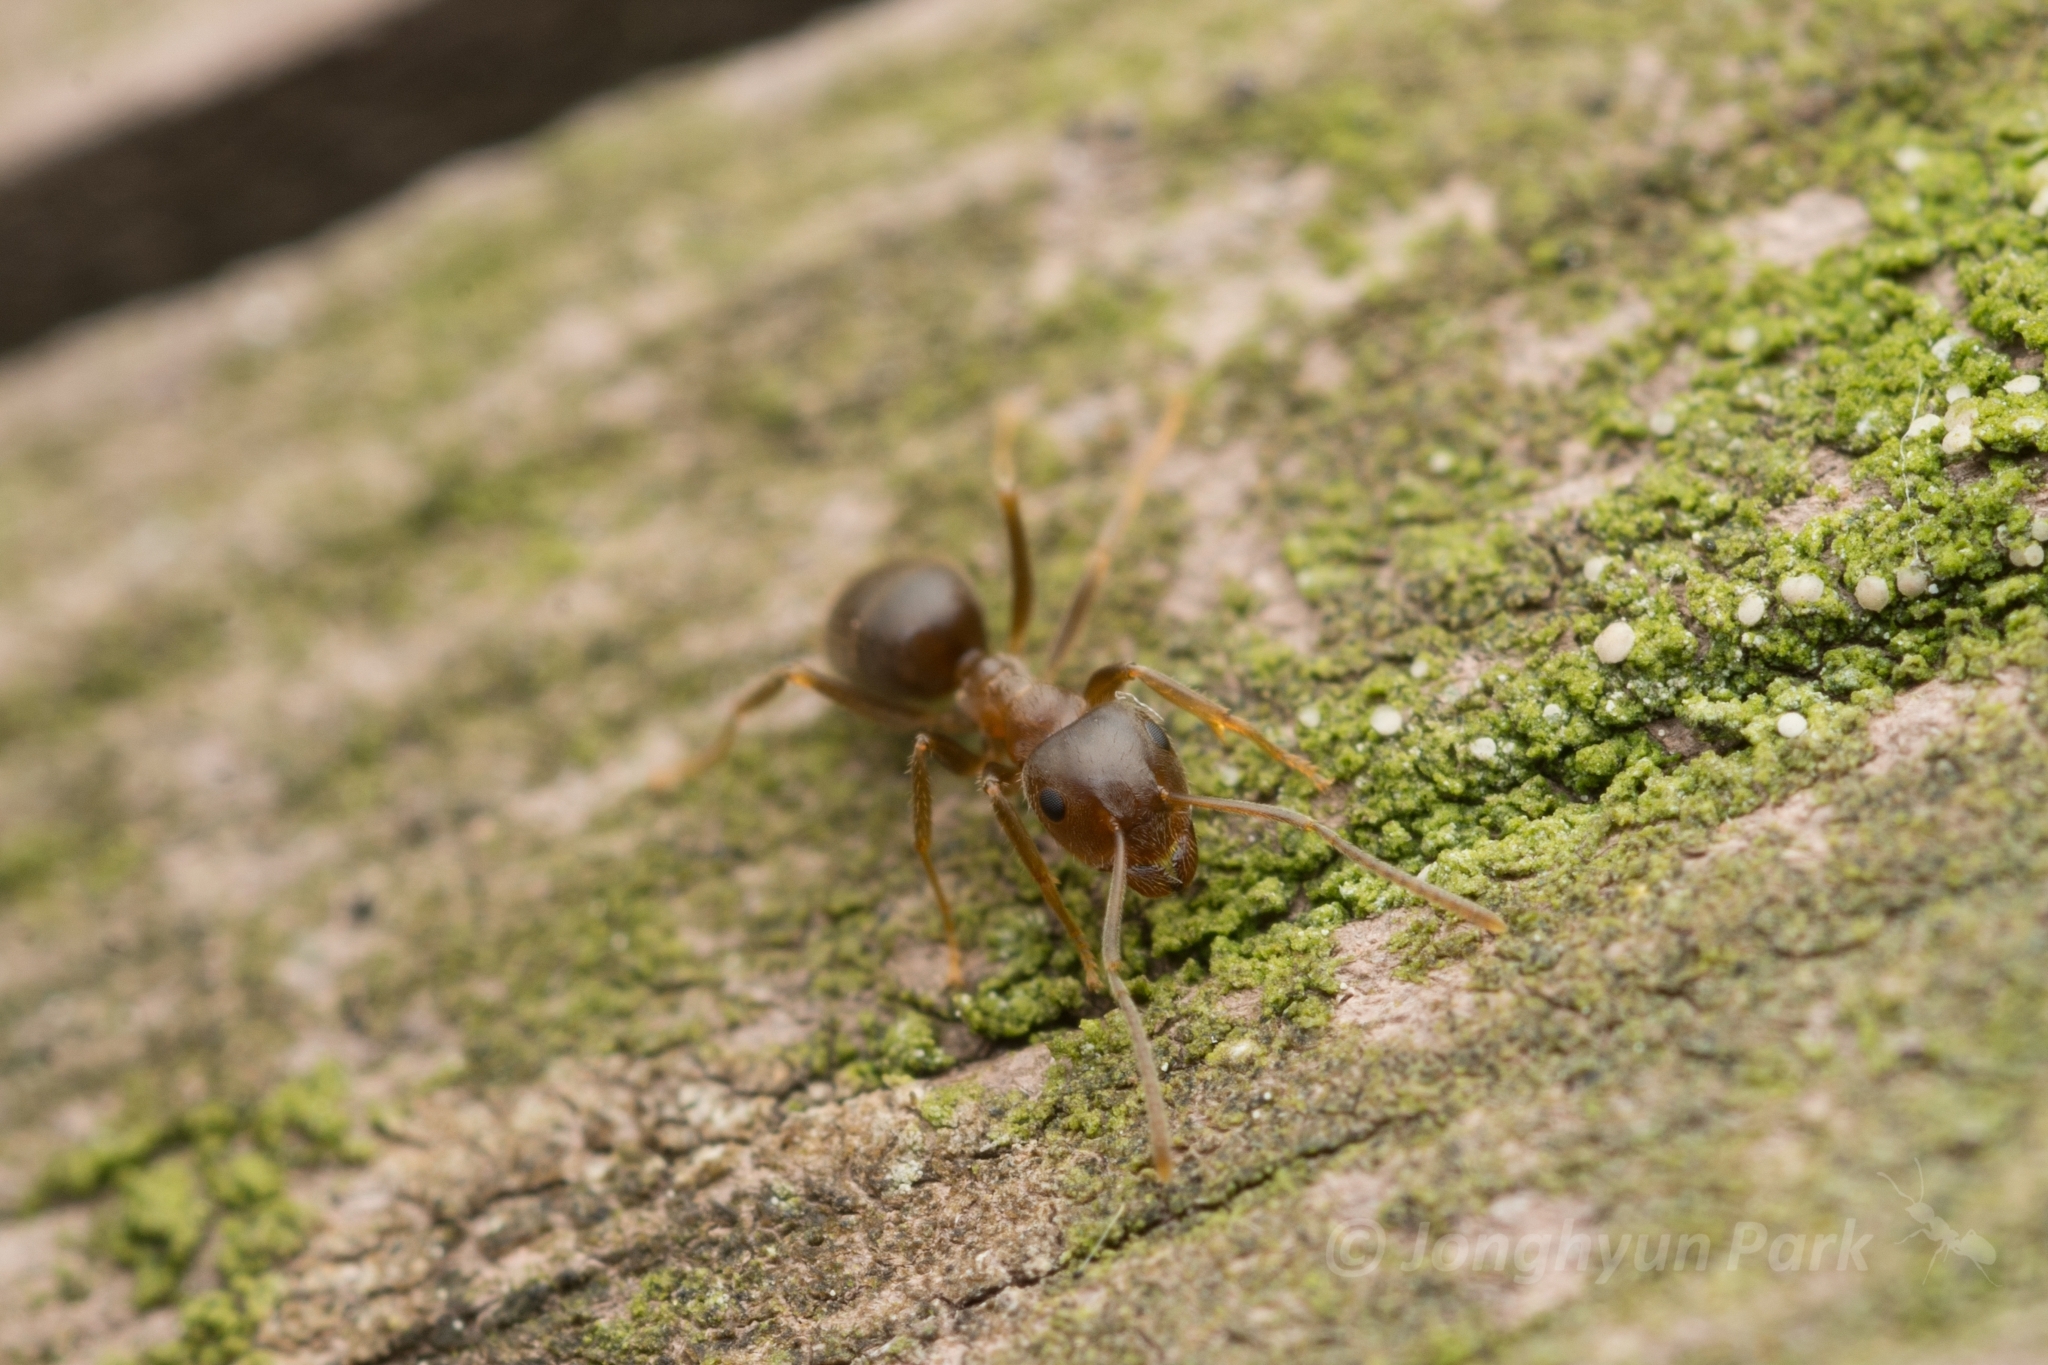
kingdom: Animalia
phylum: Arthropoda
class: Insecta
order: Hymenoptera
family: Formicidae
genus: Lasius
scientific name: Lasius hayashi
